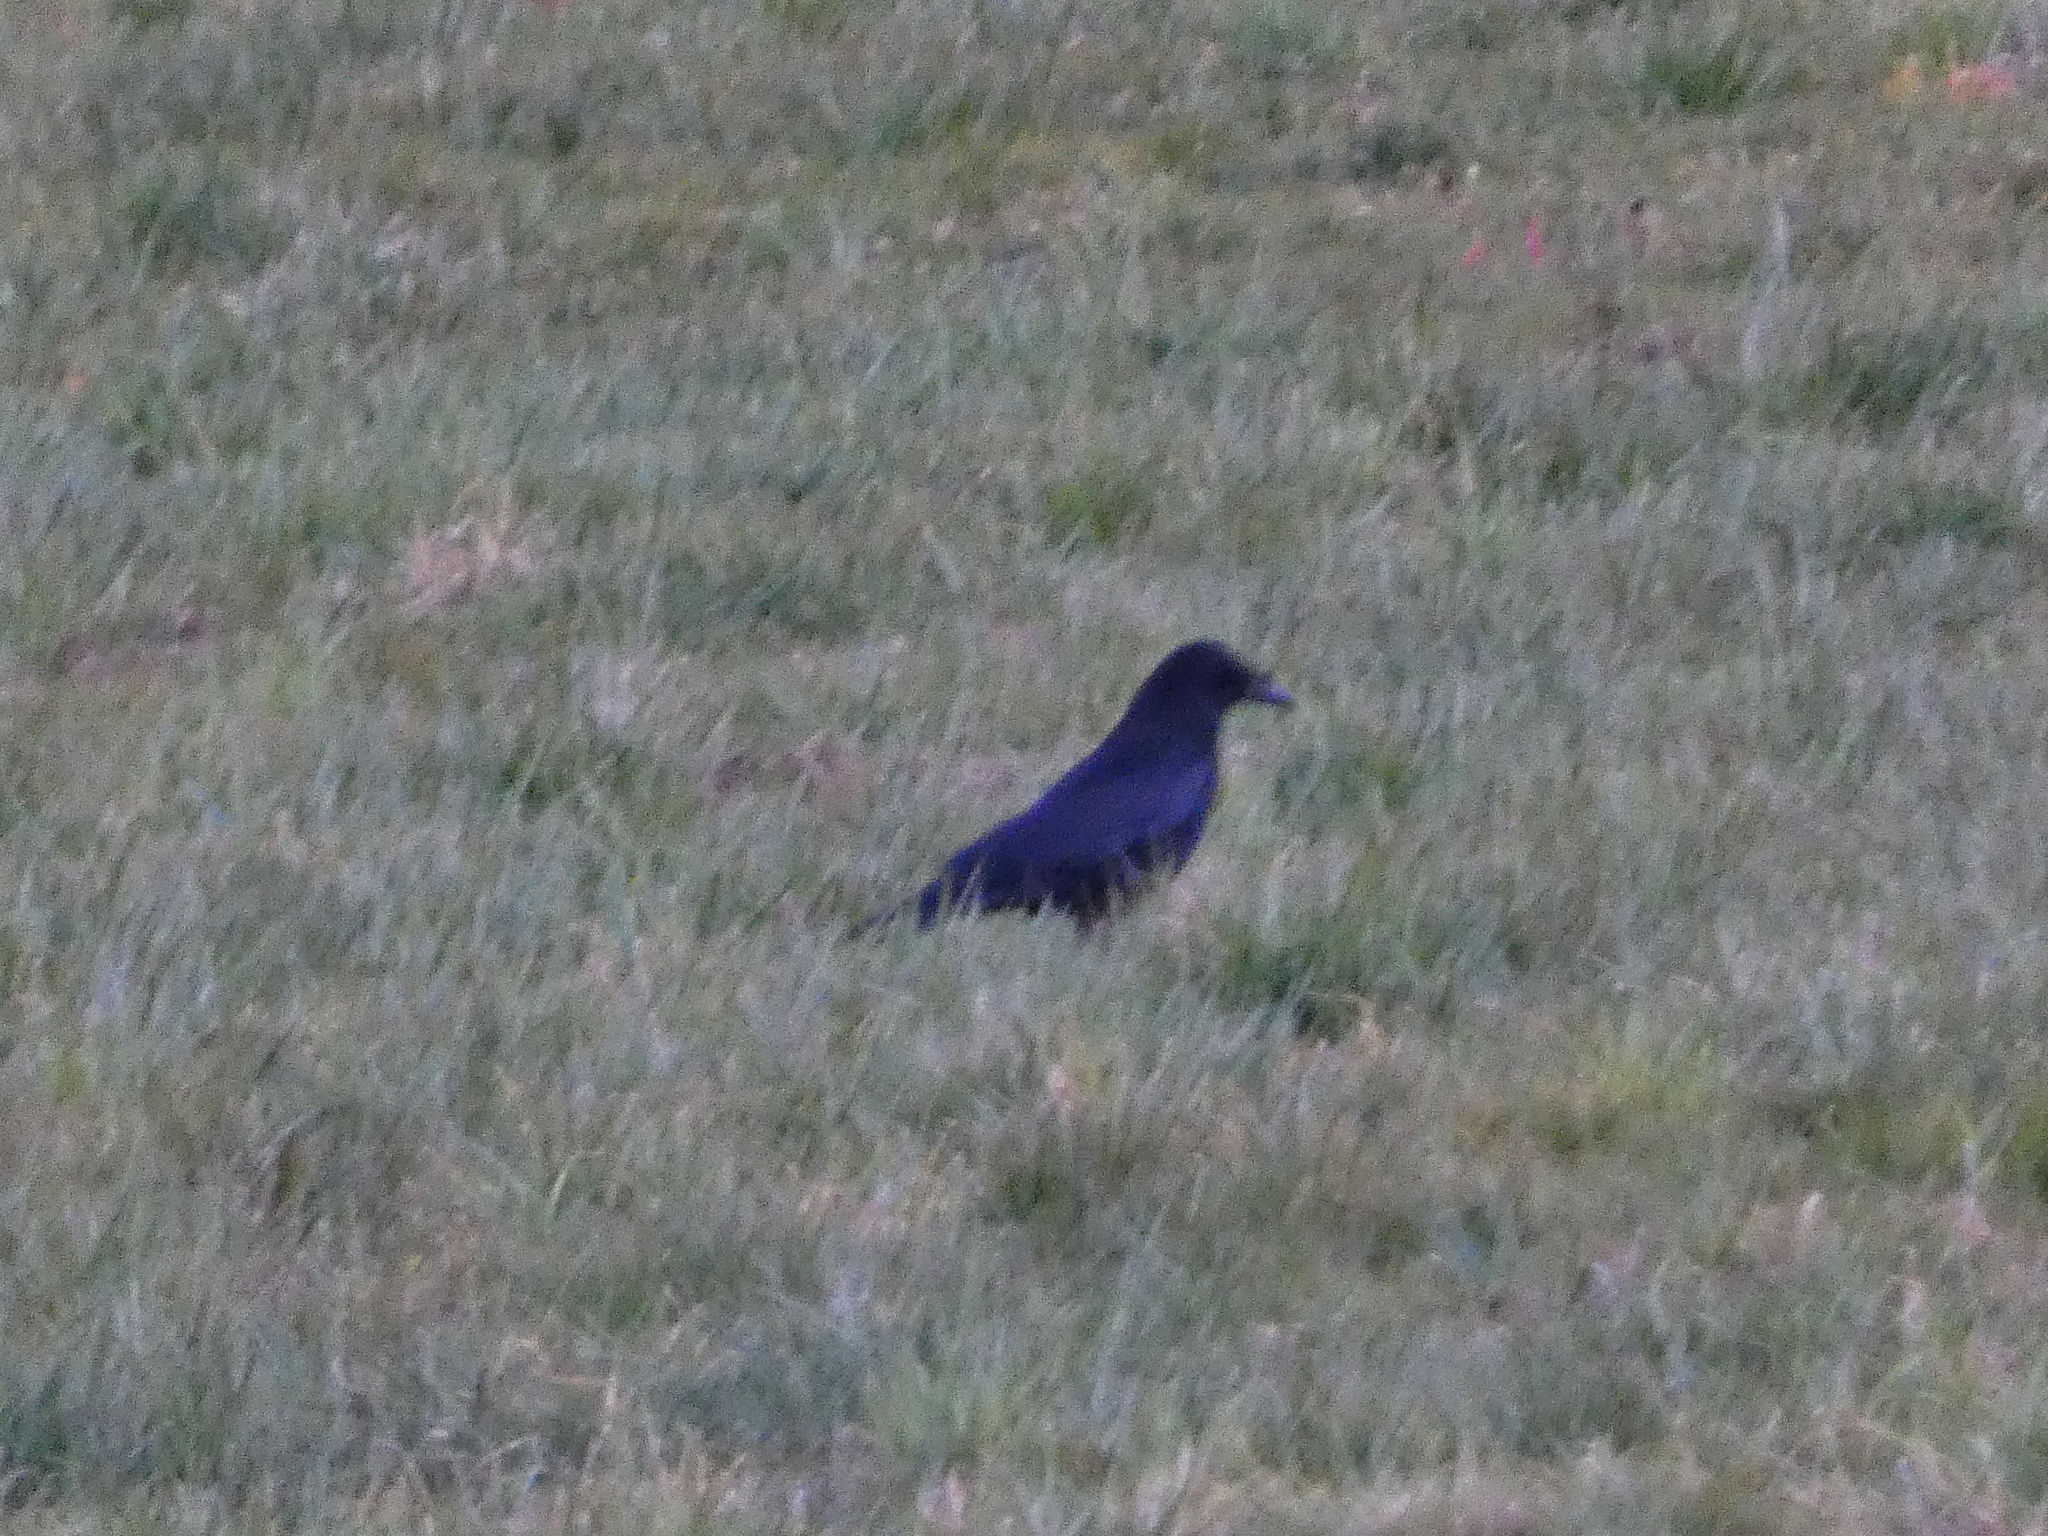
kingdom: Animalia
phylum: Chordata
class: Aves
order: Passeriformes
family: Corvidae
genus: Corvus
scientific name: Corvus corone
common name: Carrion crow
